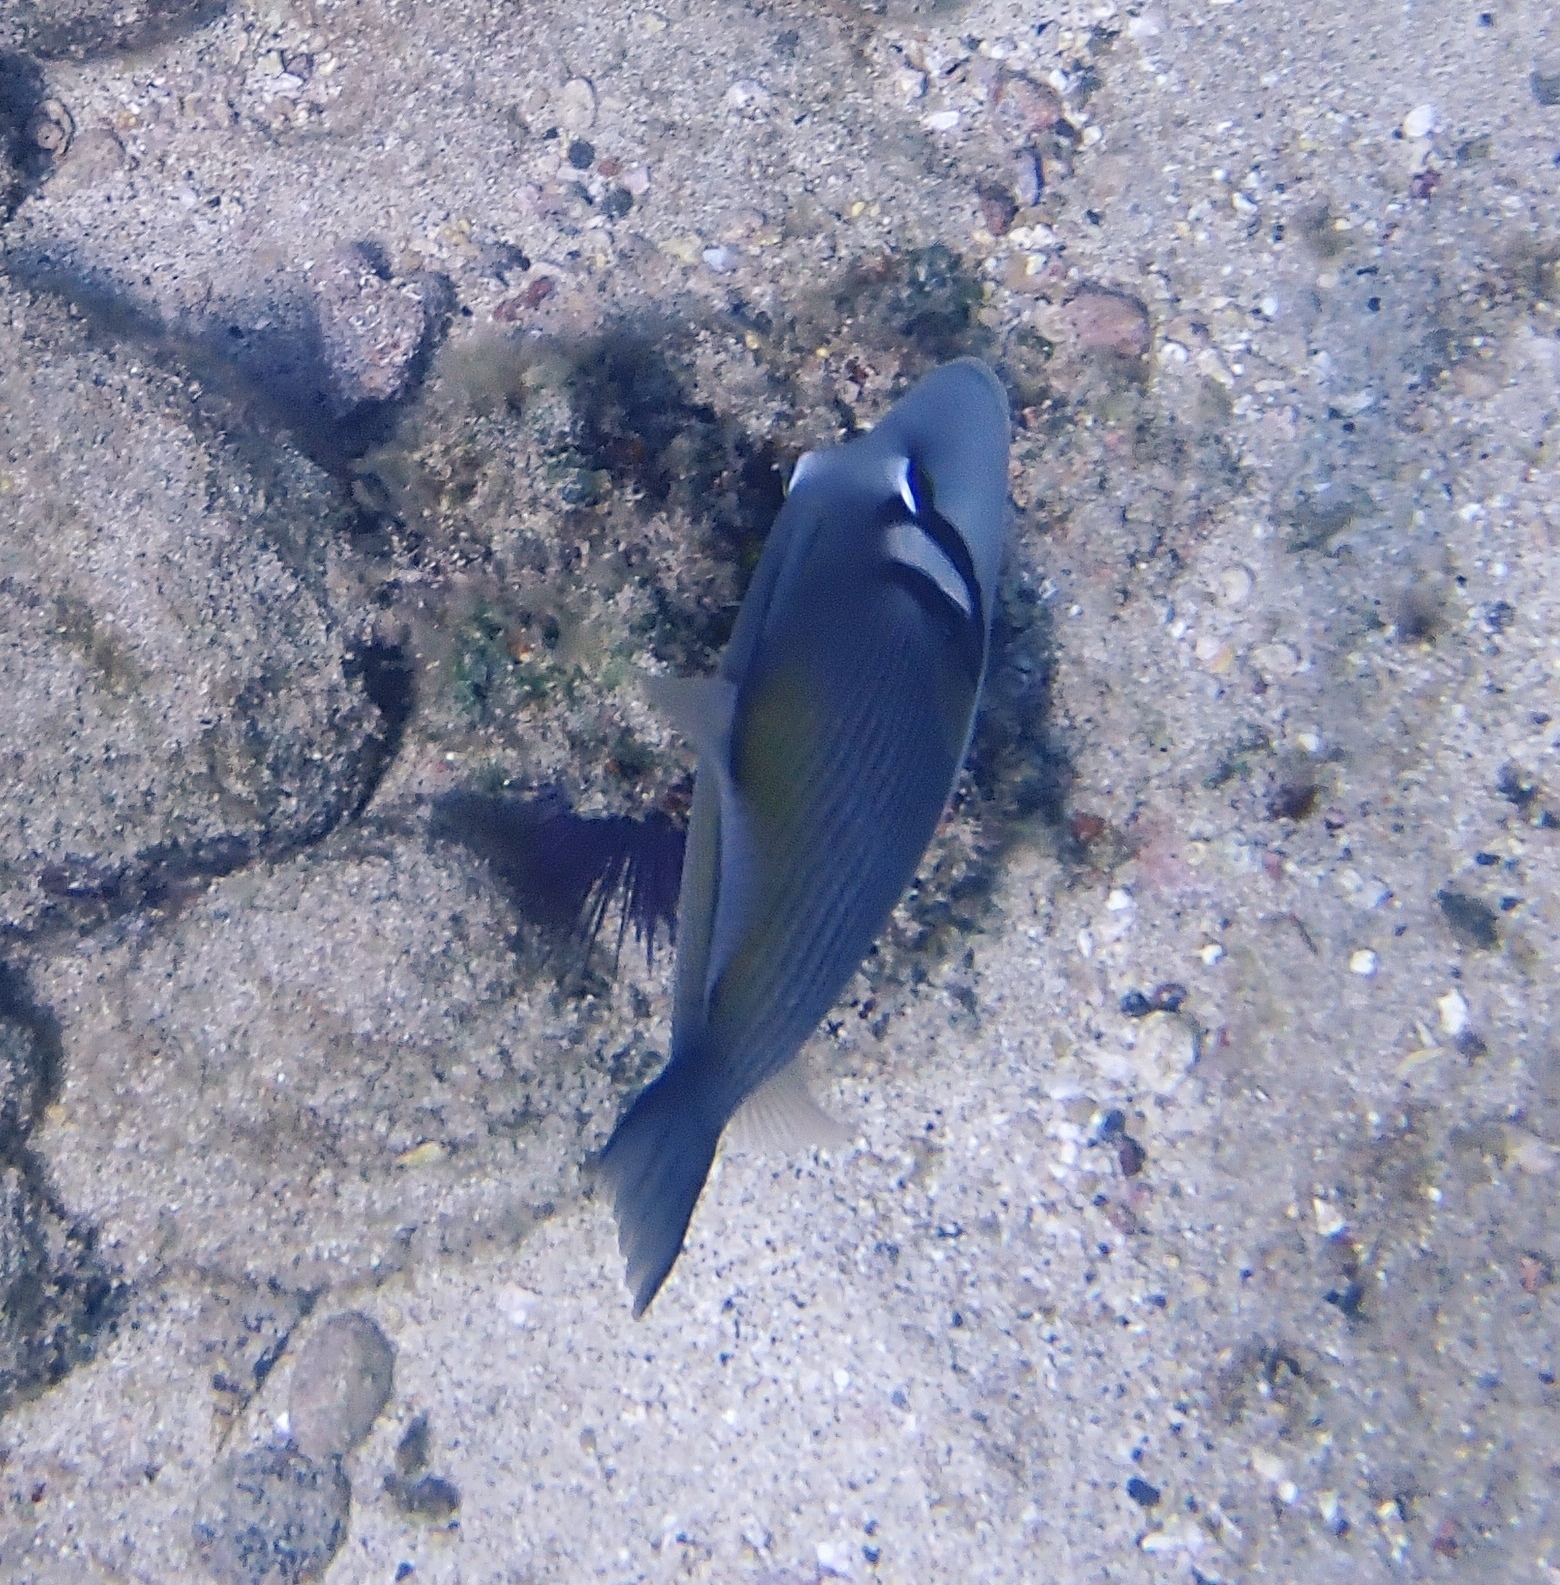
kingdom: Animalia
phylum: Chordata
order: Tetraodontiformes
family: Balistidae
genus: Sufflamen
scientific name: Sufflamen bursa
